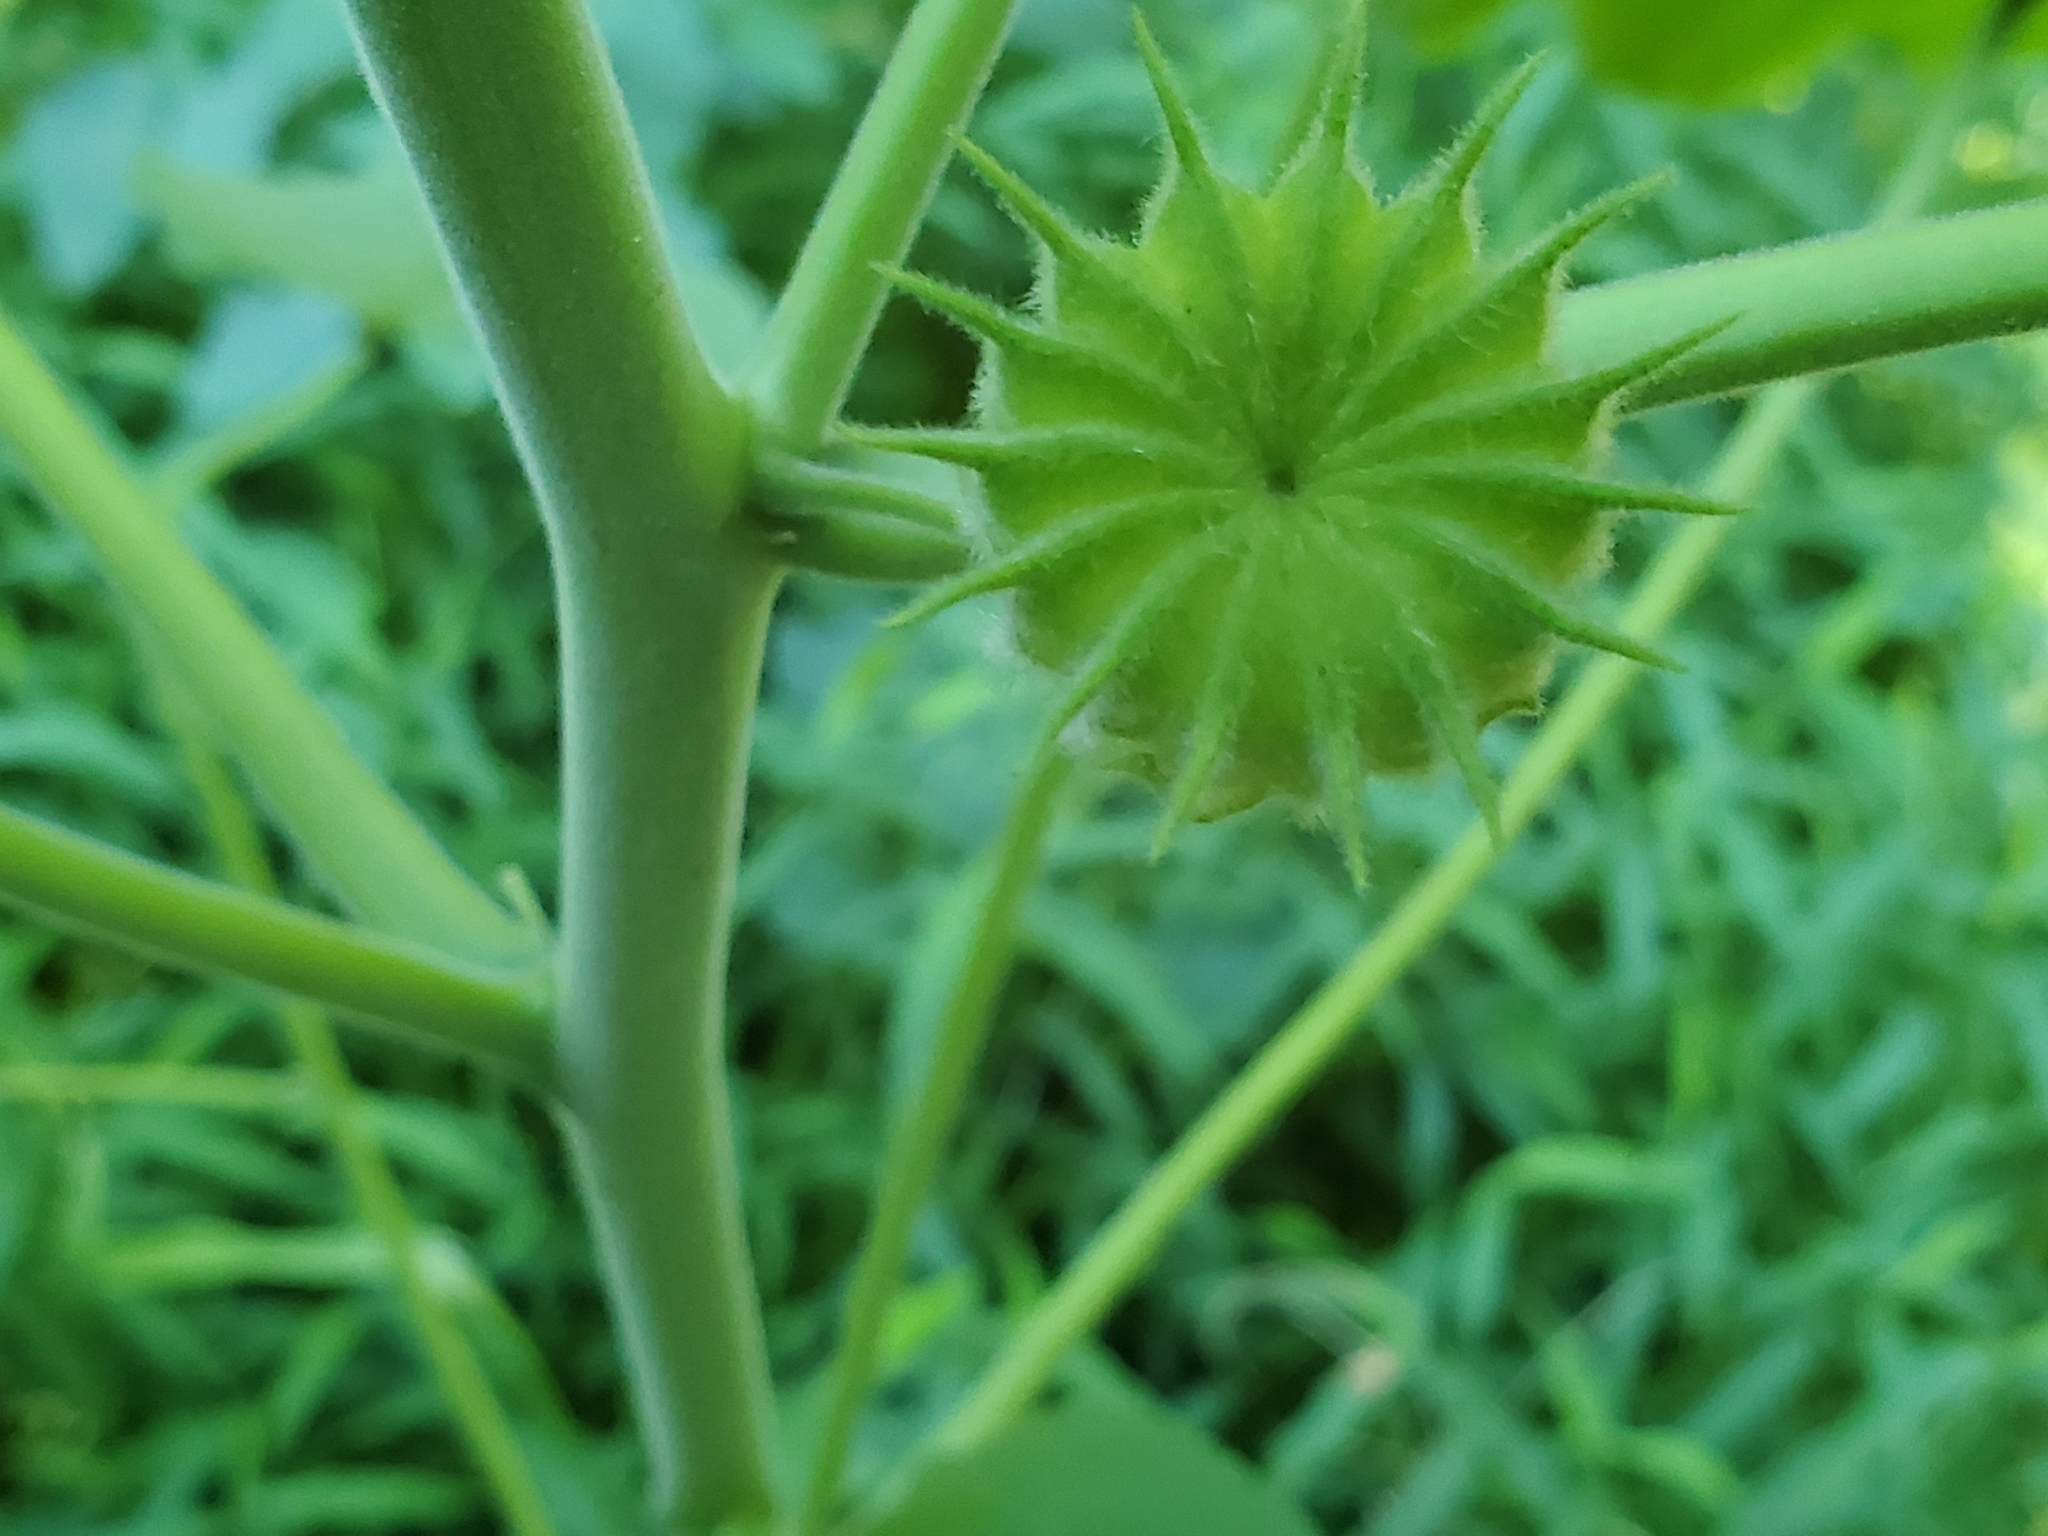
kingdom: Plantae
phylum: Tracheophyta
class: Magnoliopsida
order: Malvales
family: Malvaceae
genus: Abutilon
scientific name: Abutilon theophrasti
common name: Velvetleaf
